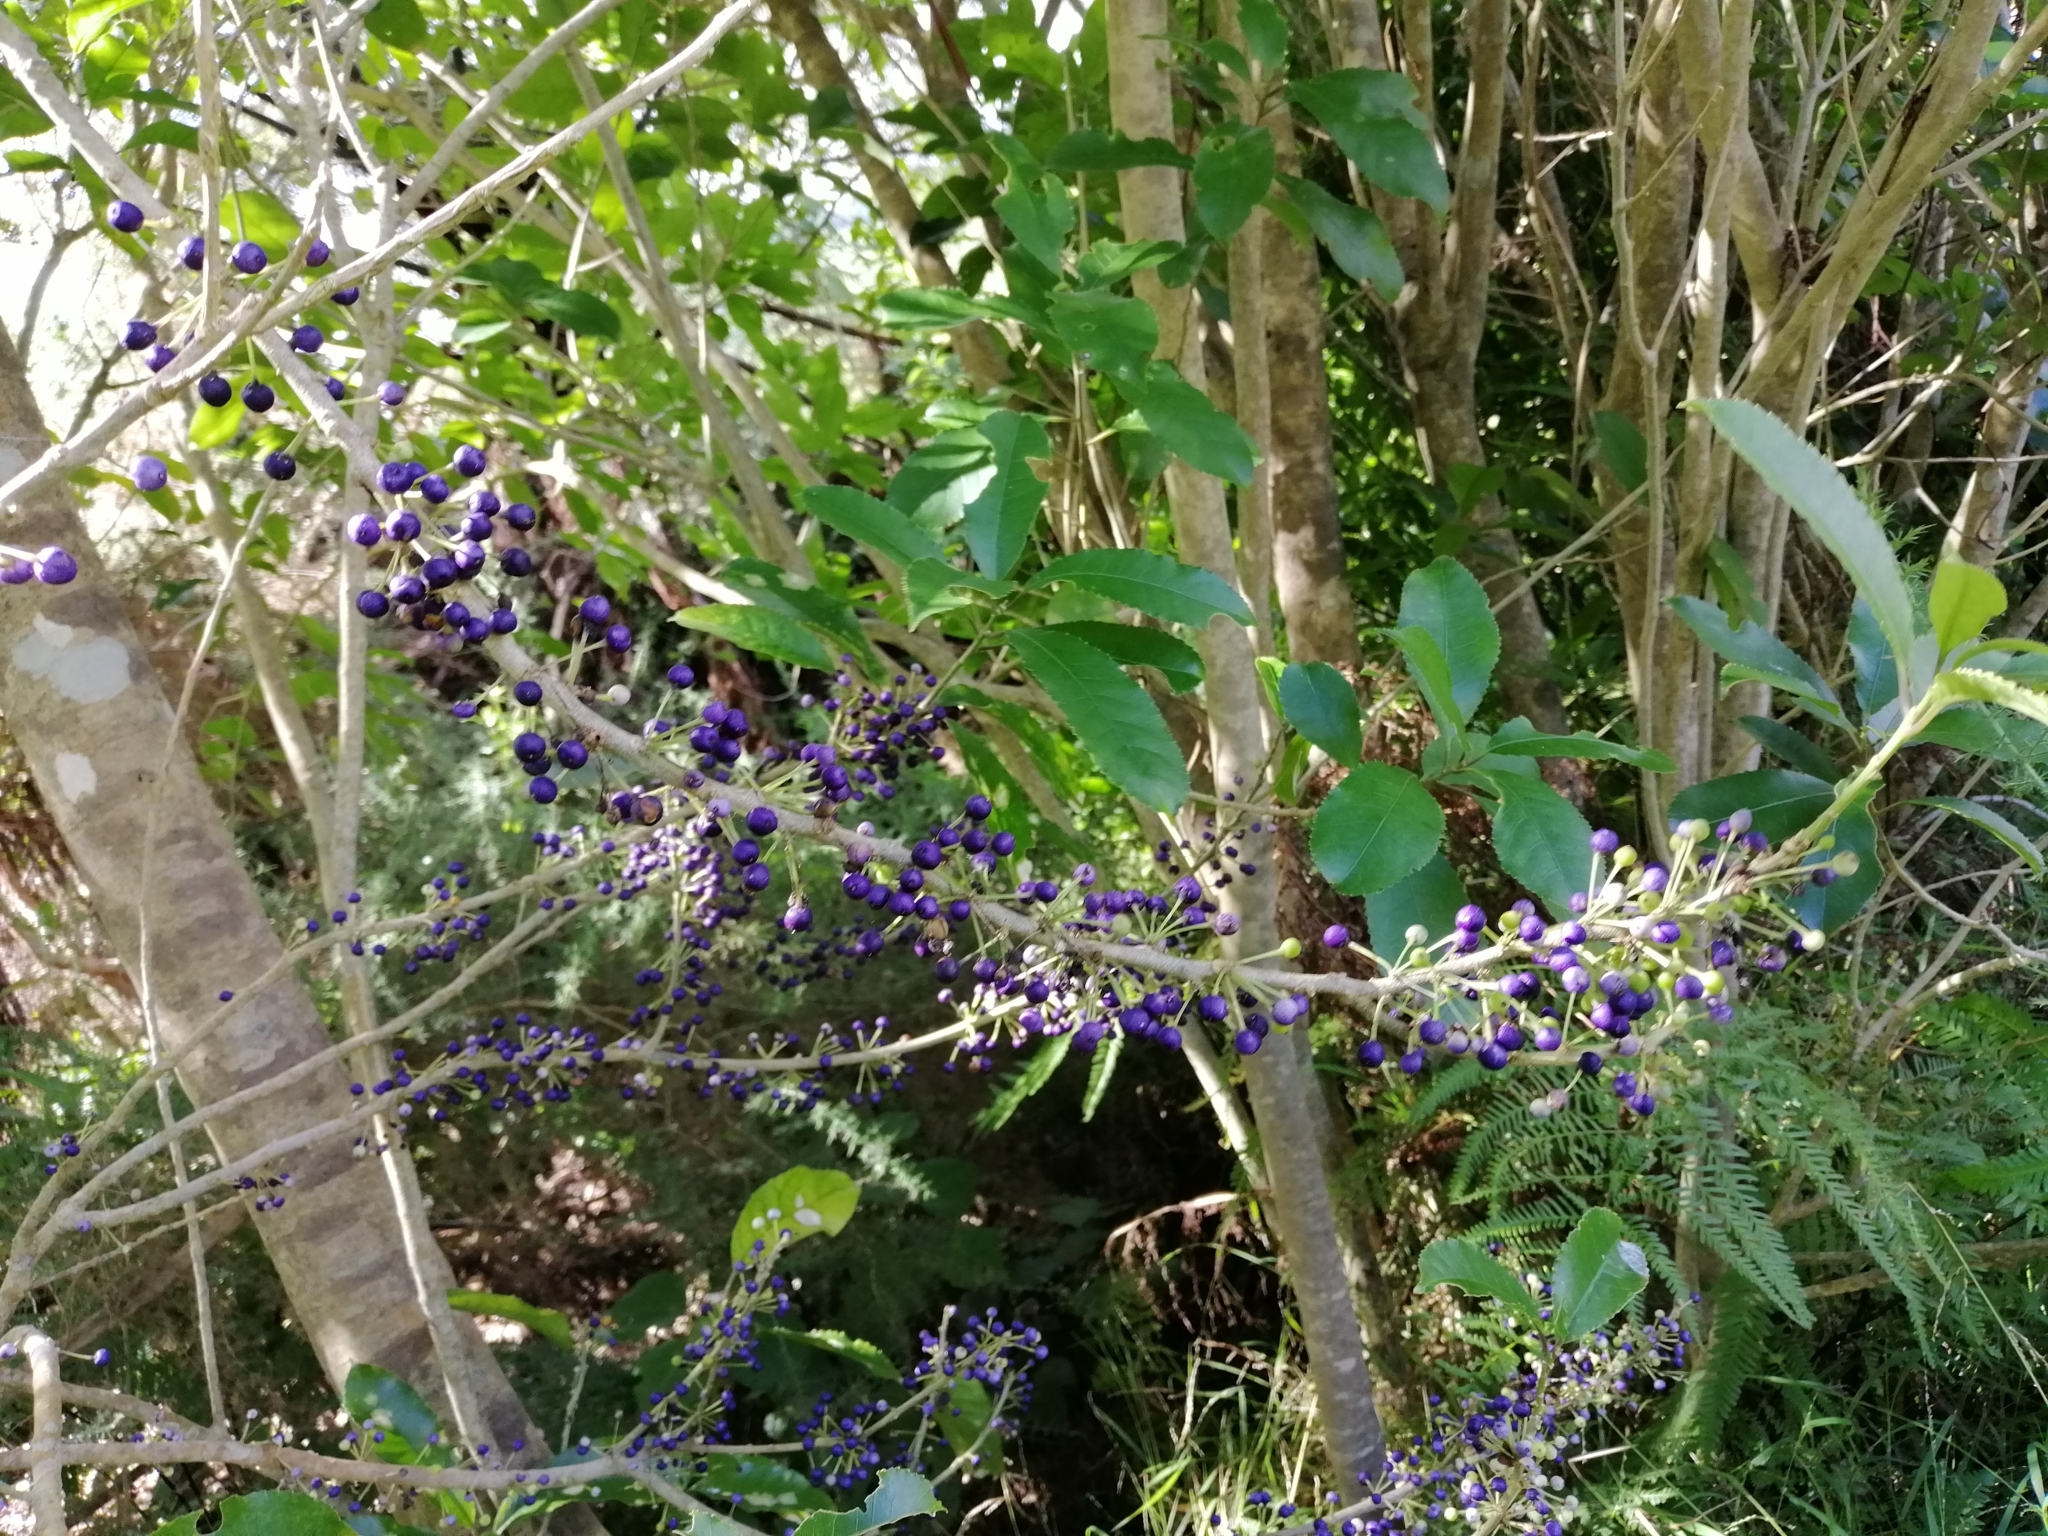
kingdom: Plantae
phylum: Tracheophyta
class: Magnoliopsida
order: Malpighiales
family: Violaceae
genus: Melicytus
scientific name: Melicytus ramiflorus
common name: Mahoe
